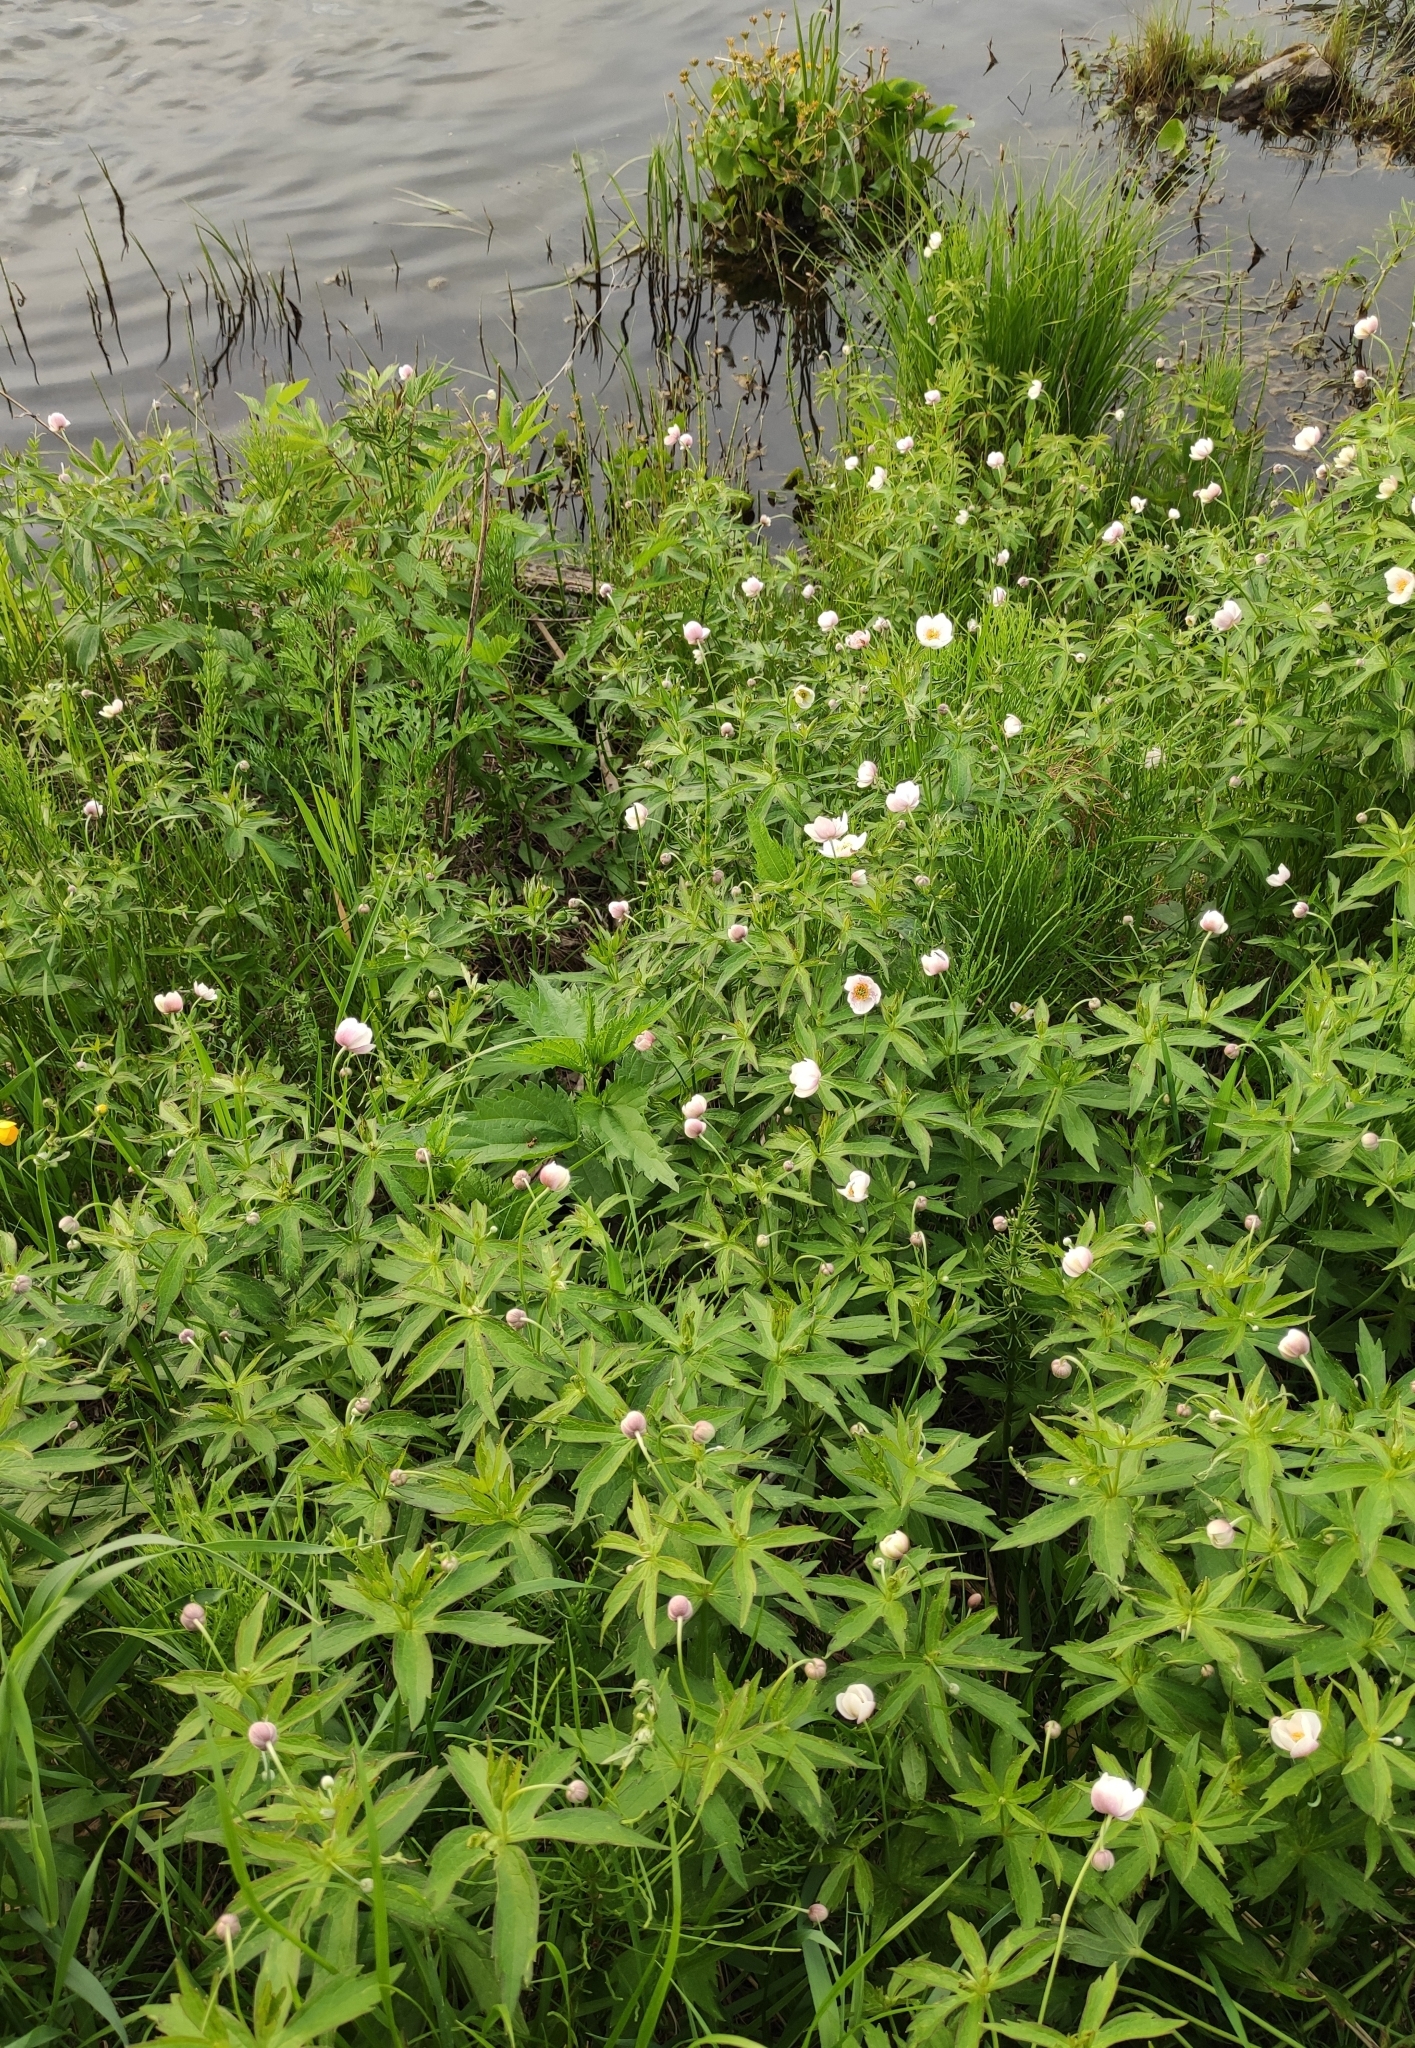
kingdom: Plantae
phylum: Tracheophyta
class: Magnoliopsida
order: Ranunculales
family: Ranunculaceae
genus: Anemonastrum
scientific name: Anemonastrum dichotomum
